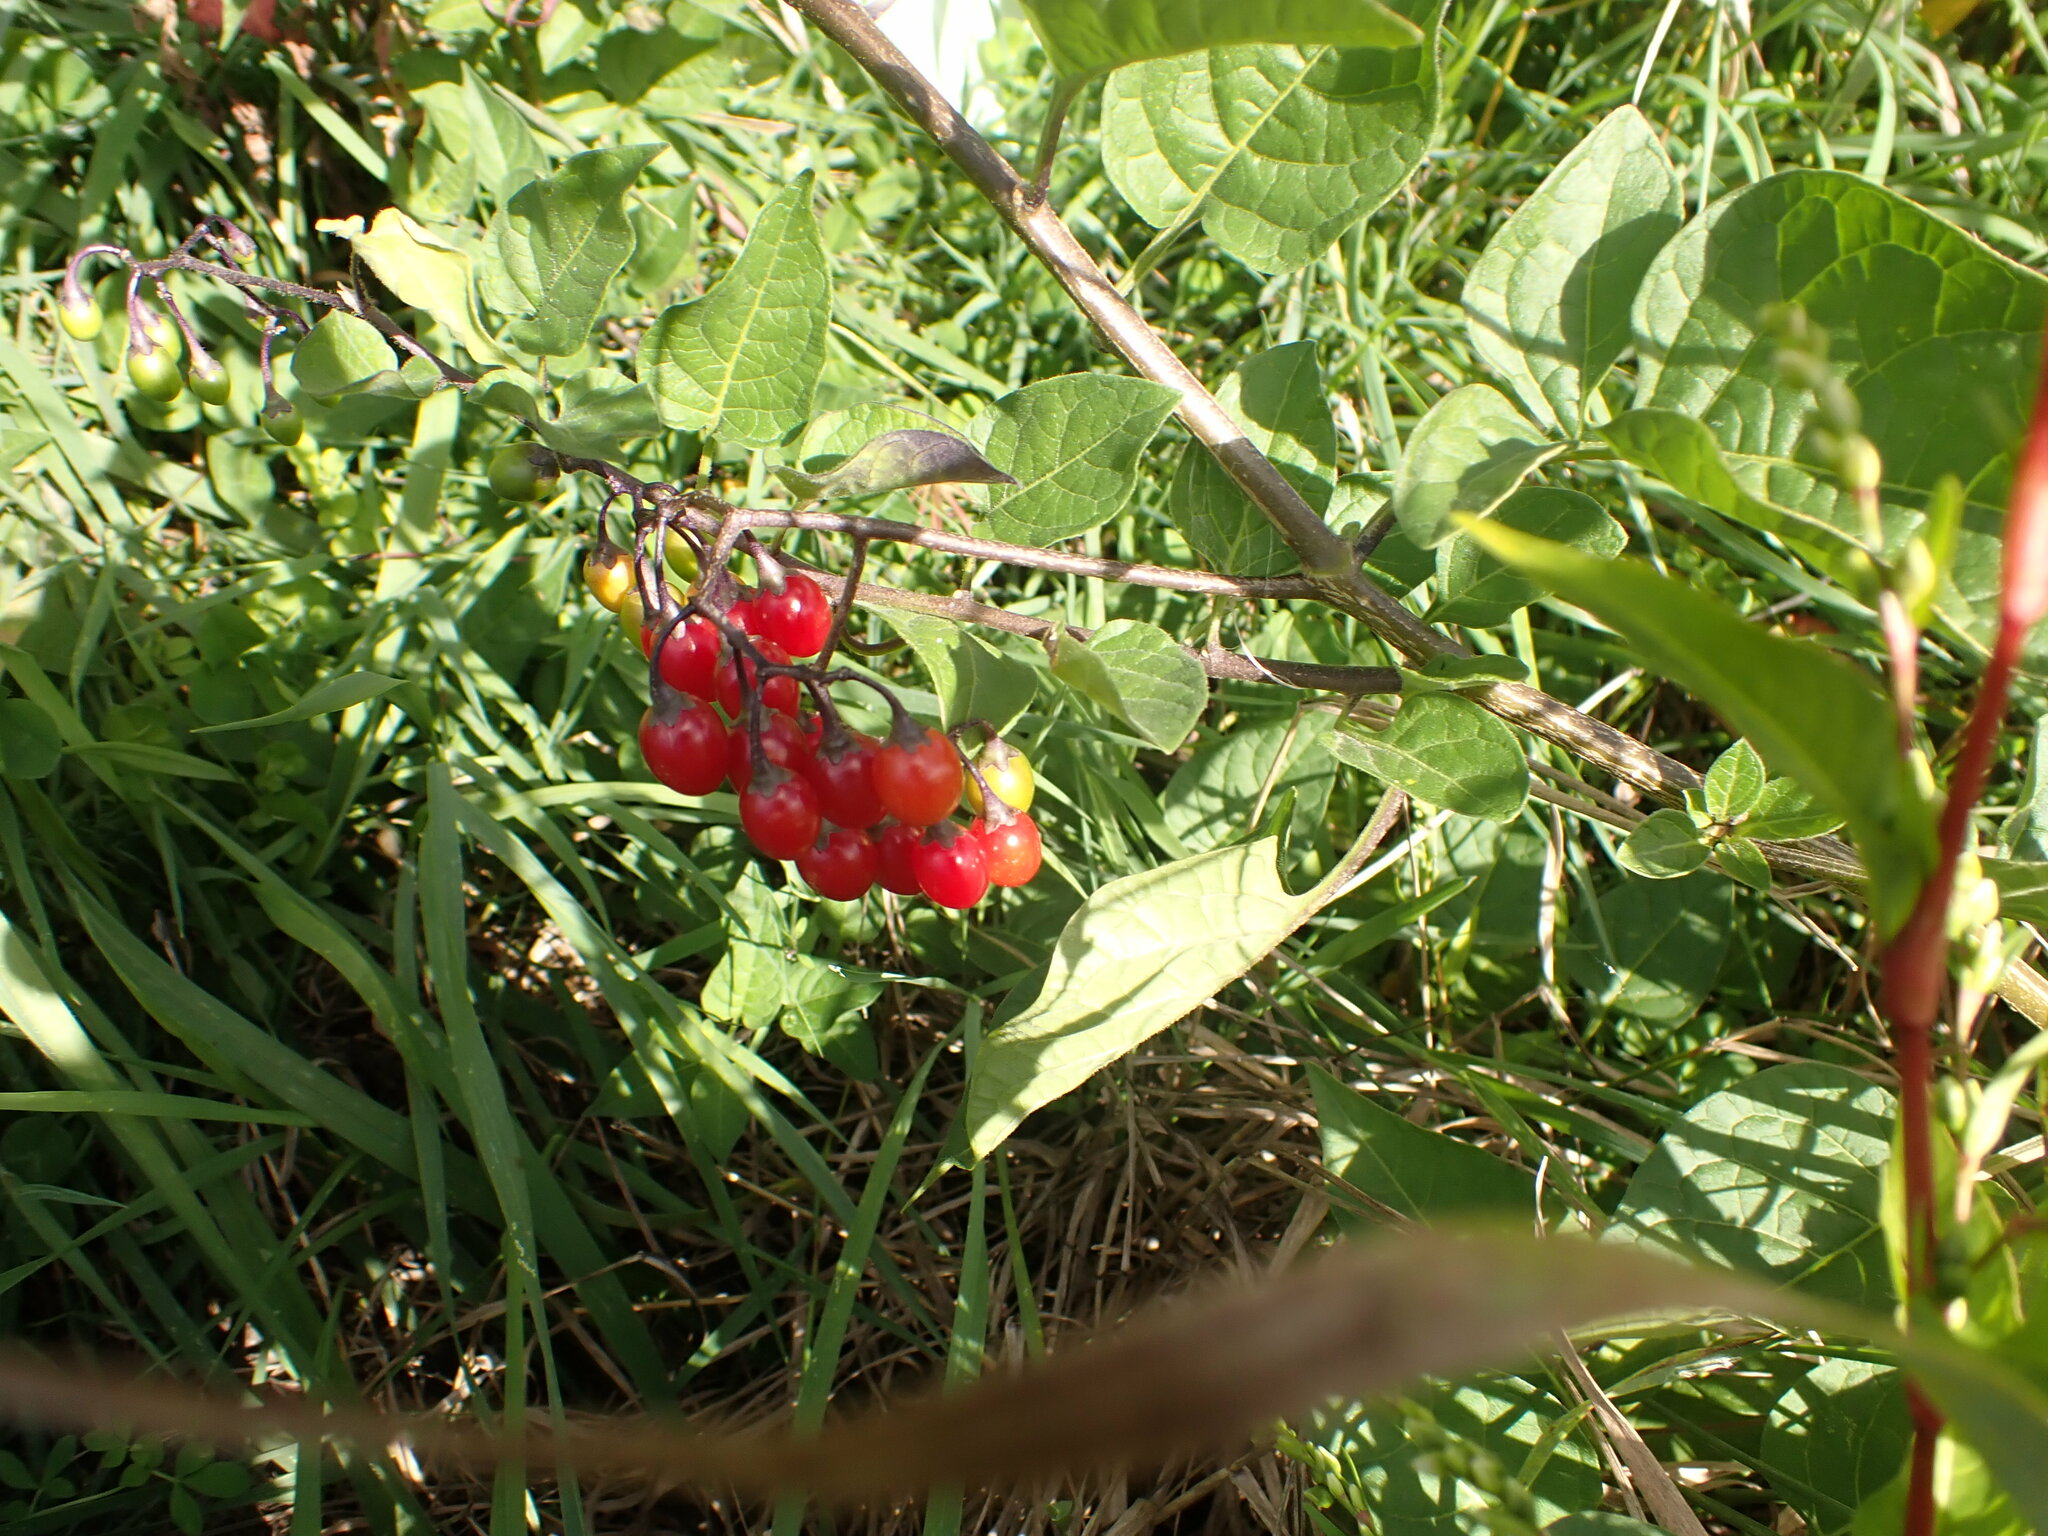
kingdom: Plantae
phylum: Tracheophyta
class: Magnoliopsida
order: Solanales
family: Solanaceae
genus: Solanum
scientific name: Solanum dulcamara
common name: Climbing nightshade
